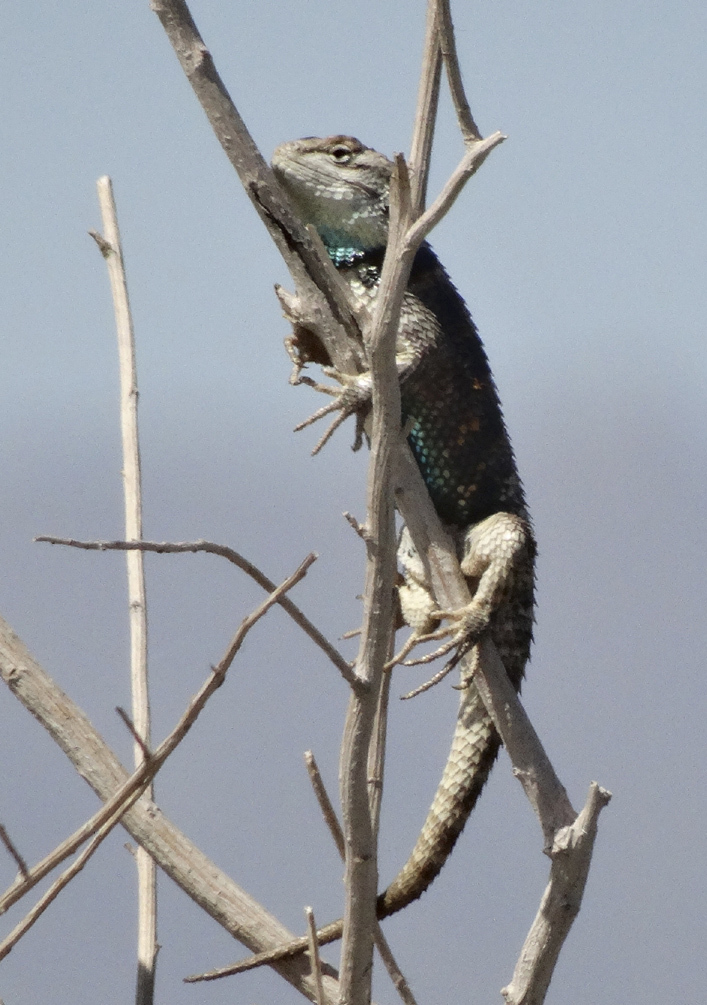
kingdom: Animalia
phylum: Chordata
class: Squamata
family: Phrynosomatidae
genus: Sceloporus
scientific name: Sceloporus uniformis
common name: Yellow-backed spiny lizard
